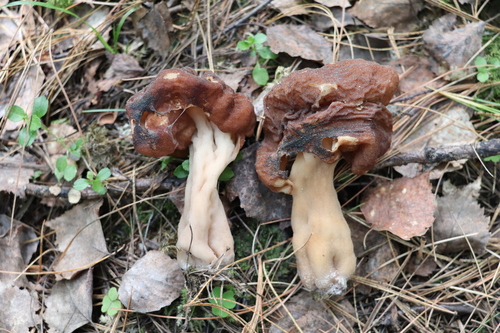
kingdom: Fungi
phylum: Ascomycota
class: Pezizomycetes
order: Pezizales
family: Discinaceae
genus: Gyromitra
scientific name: Gyromitra
